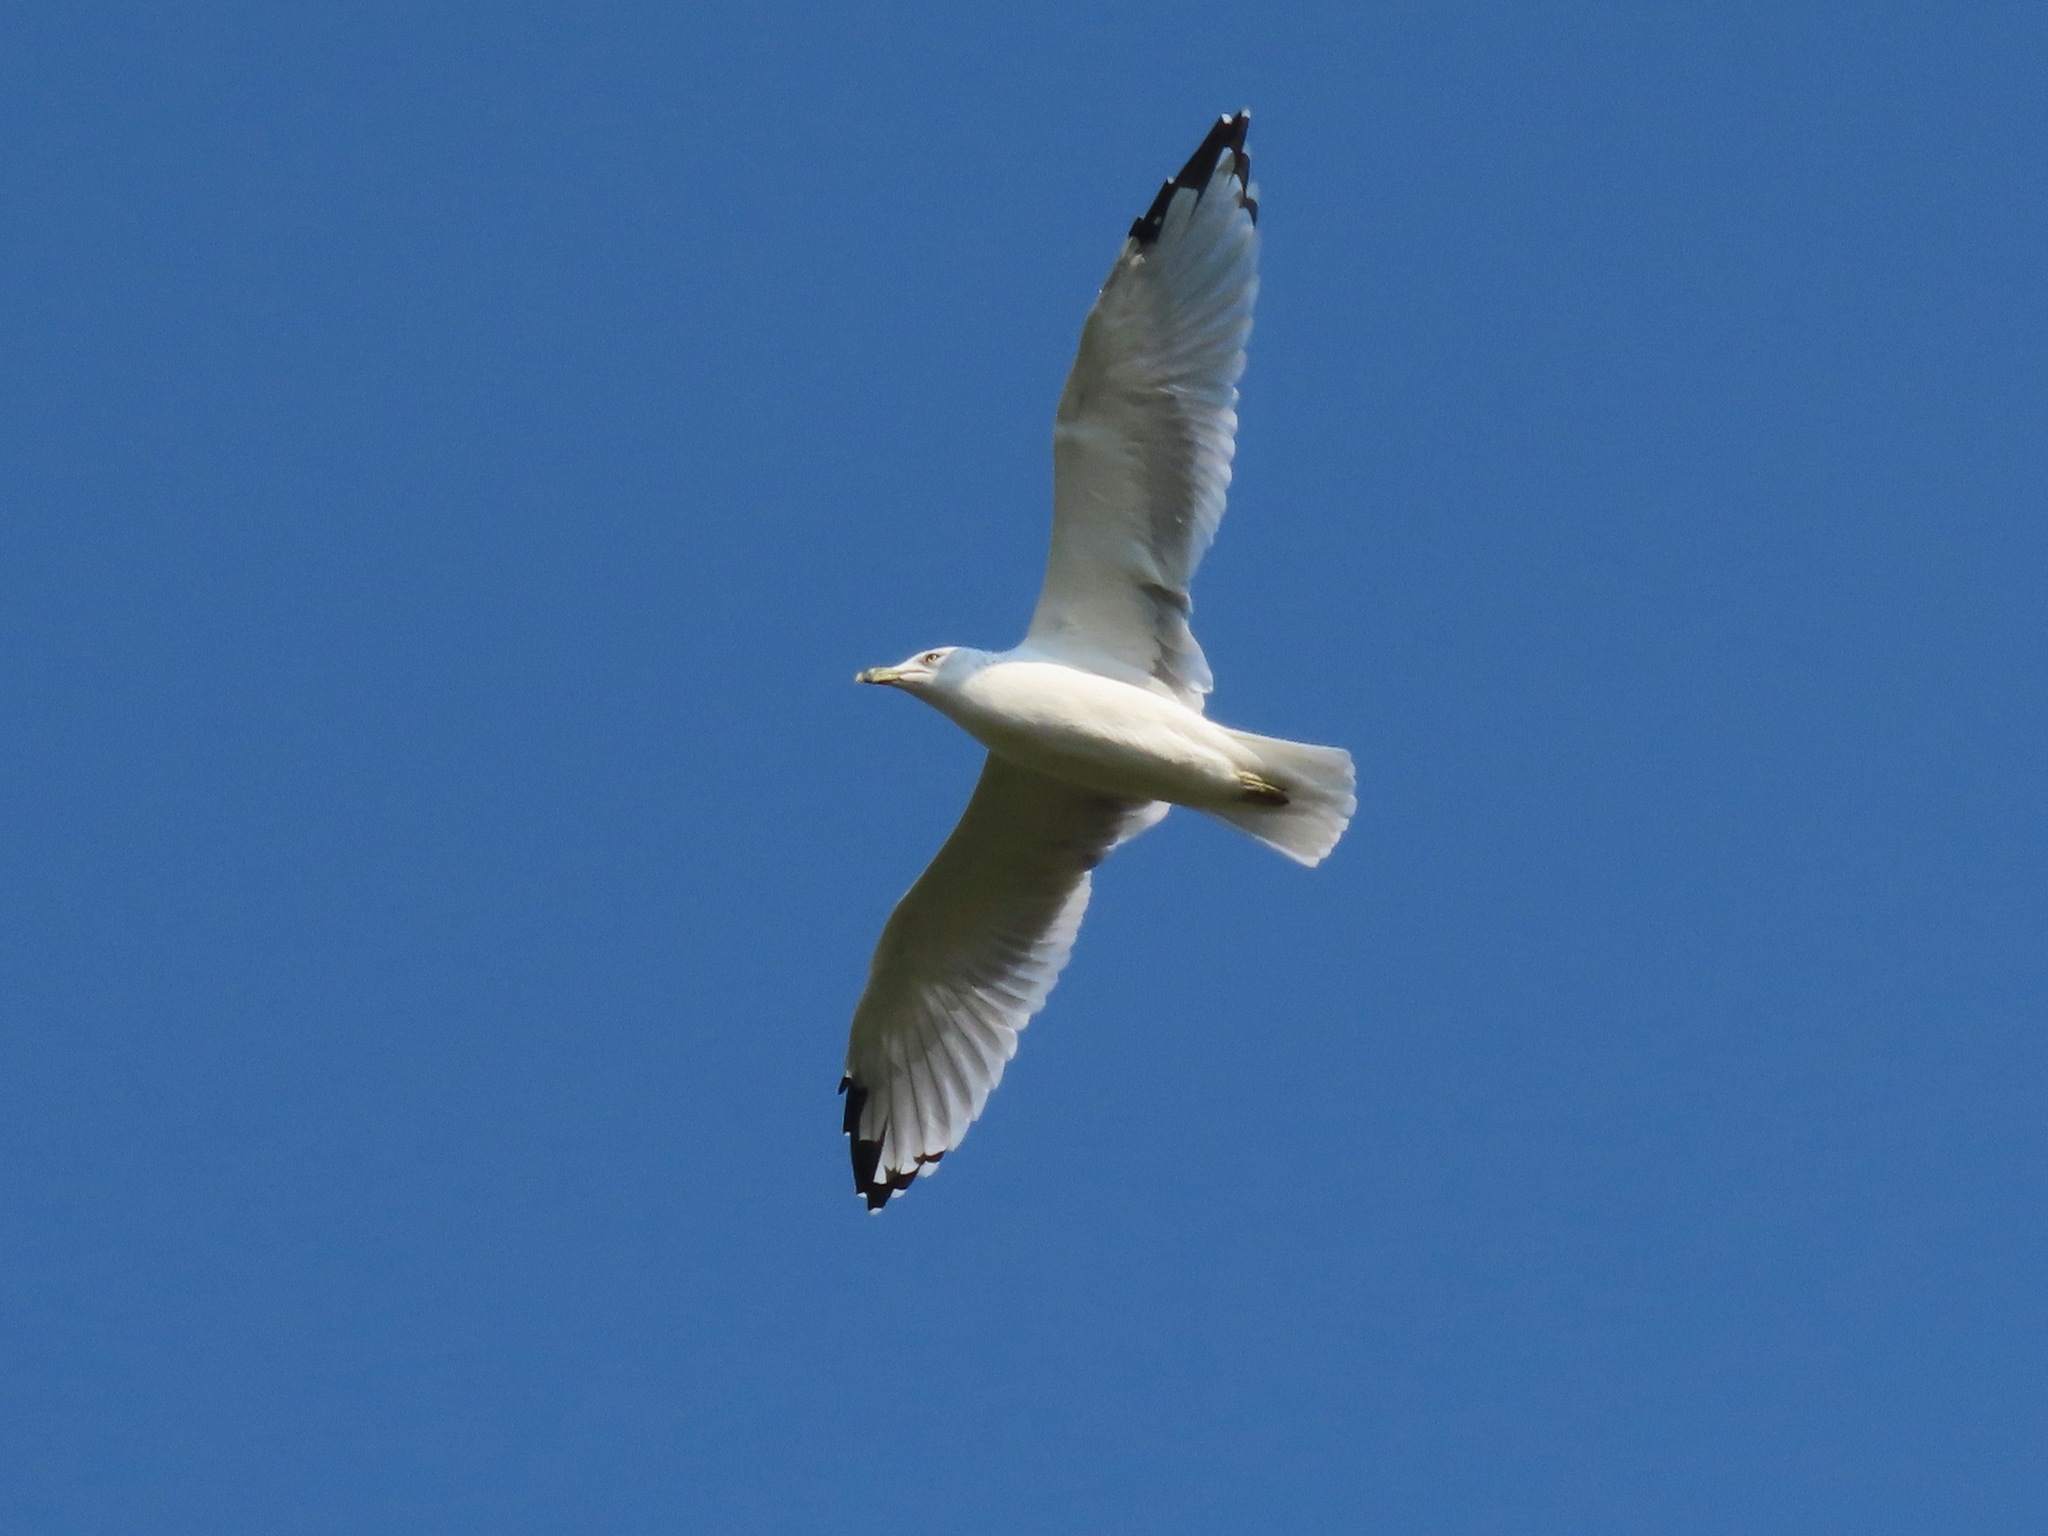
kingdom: Animalia
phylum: Chordata
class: Aves
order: Charadriiformes
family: Laridae
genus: Larus
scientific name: Larus delawarensis
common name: Ring-billed gull
